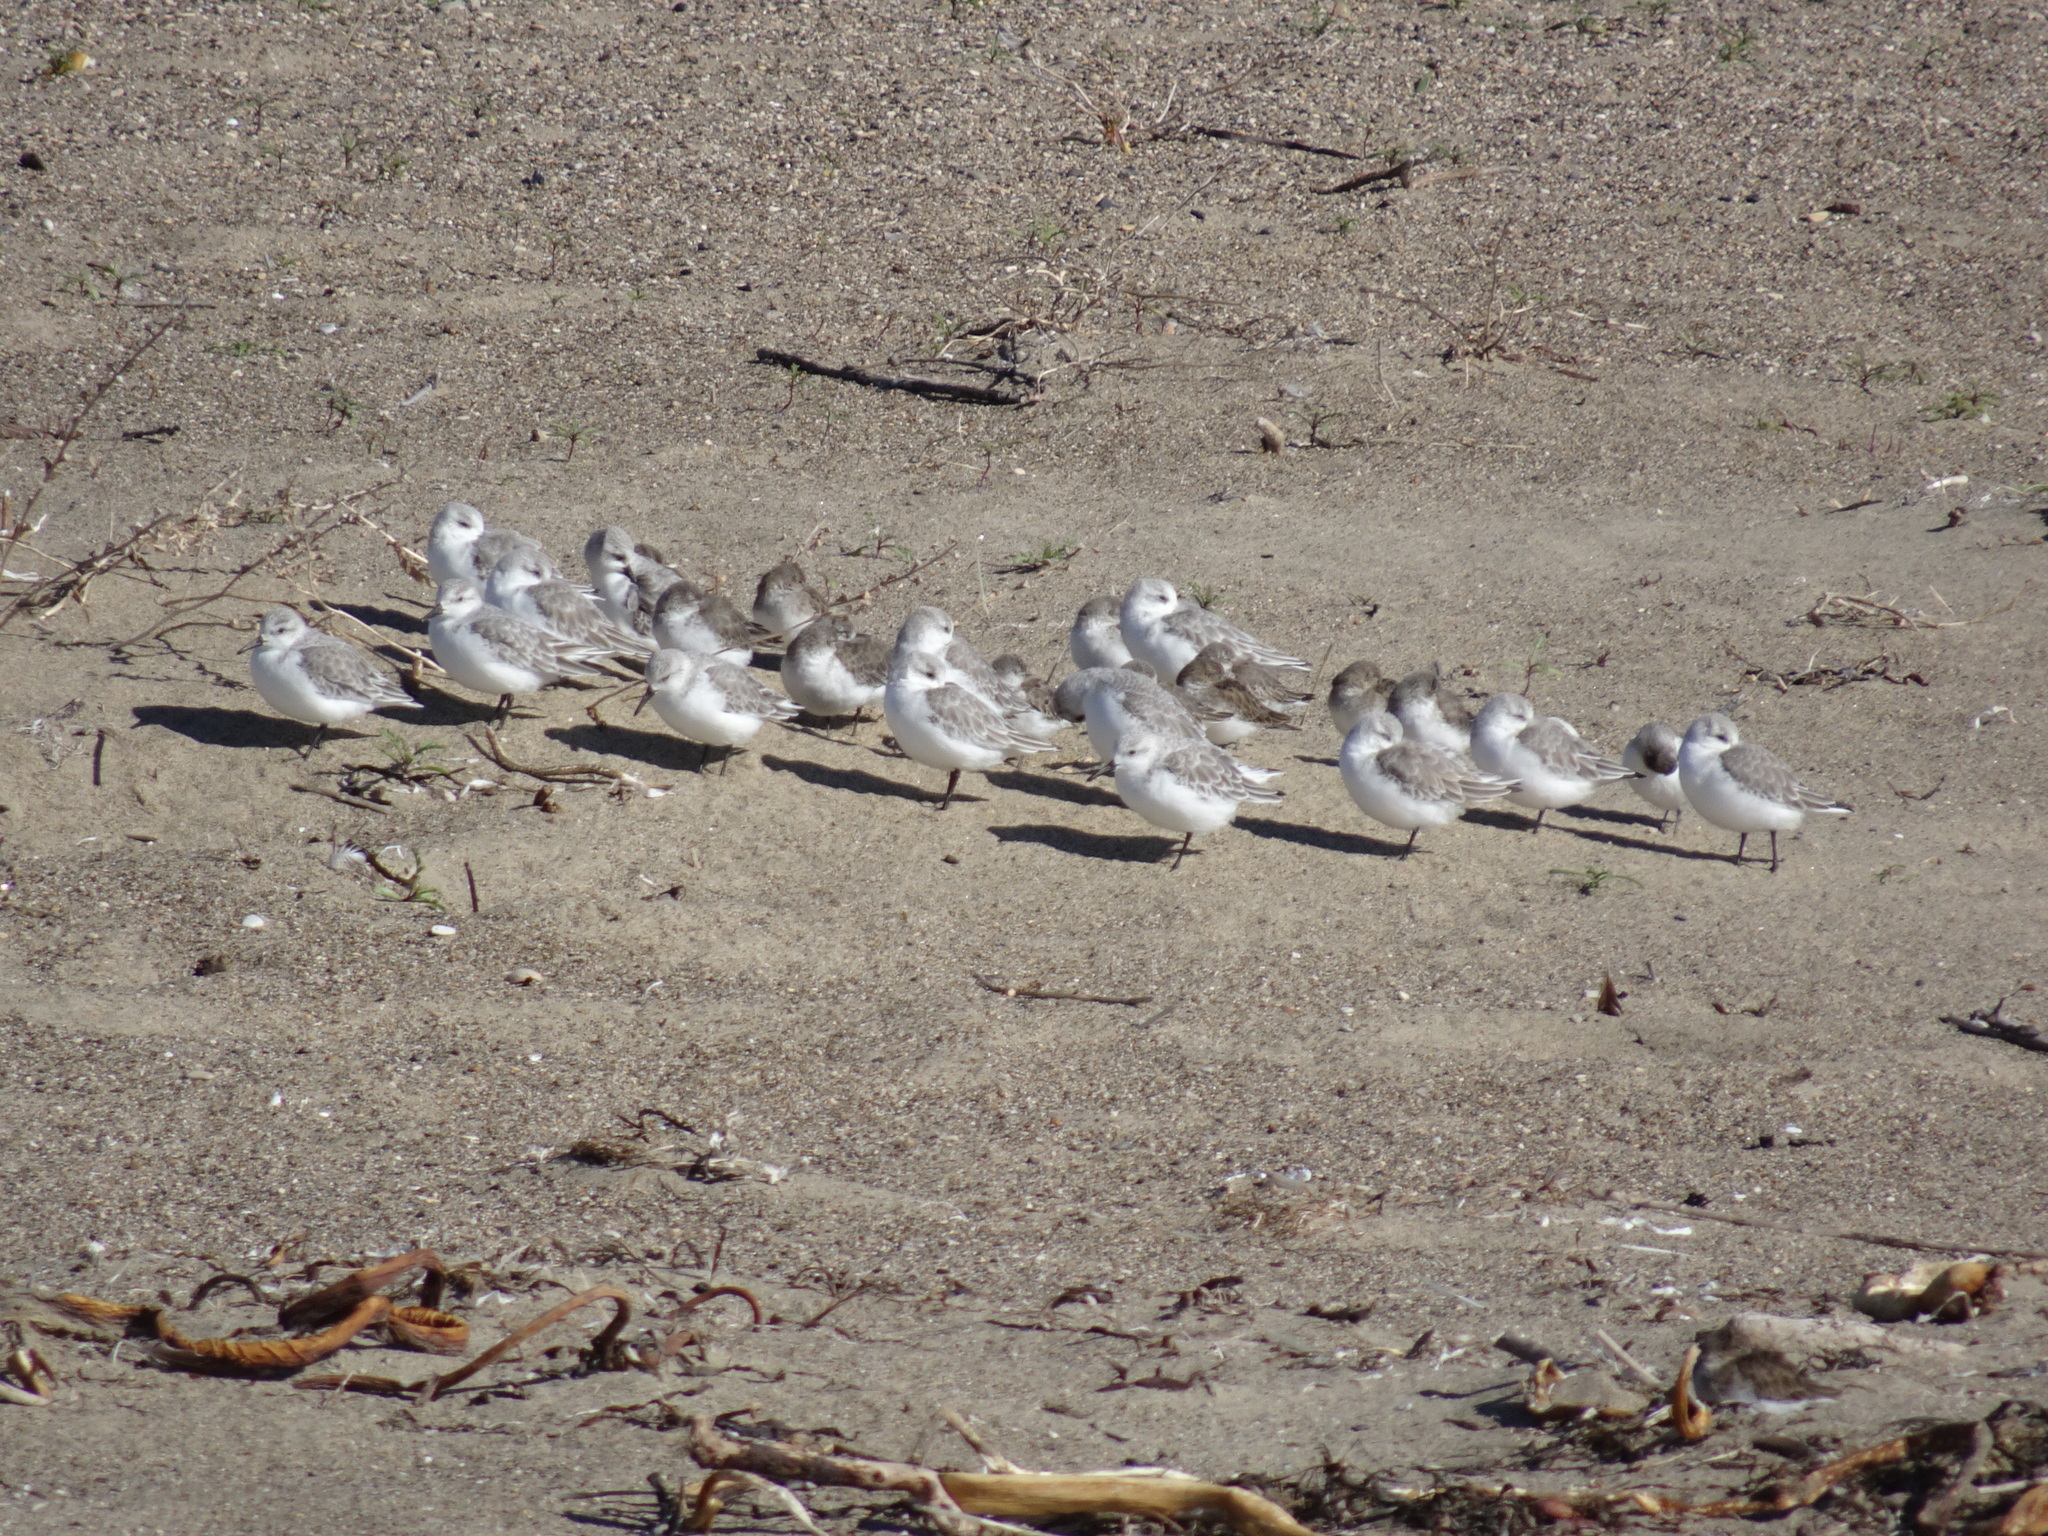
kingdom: Animalia
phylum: Chordata
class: Aves
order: Charadriiformes
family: Scolopacidae
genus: Calidris
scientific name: Calidris alba
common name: Sanderling
